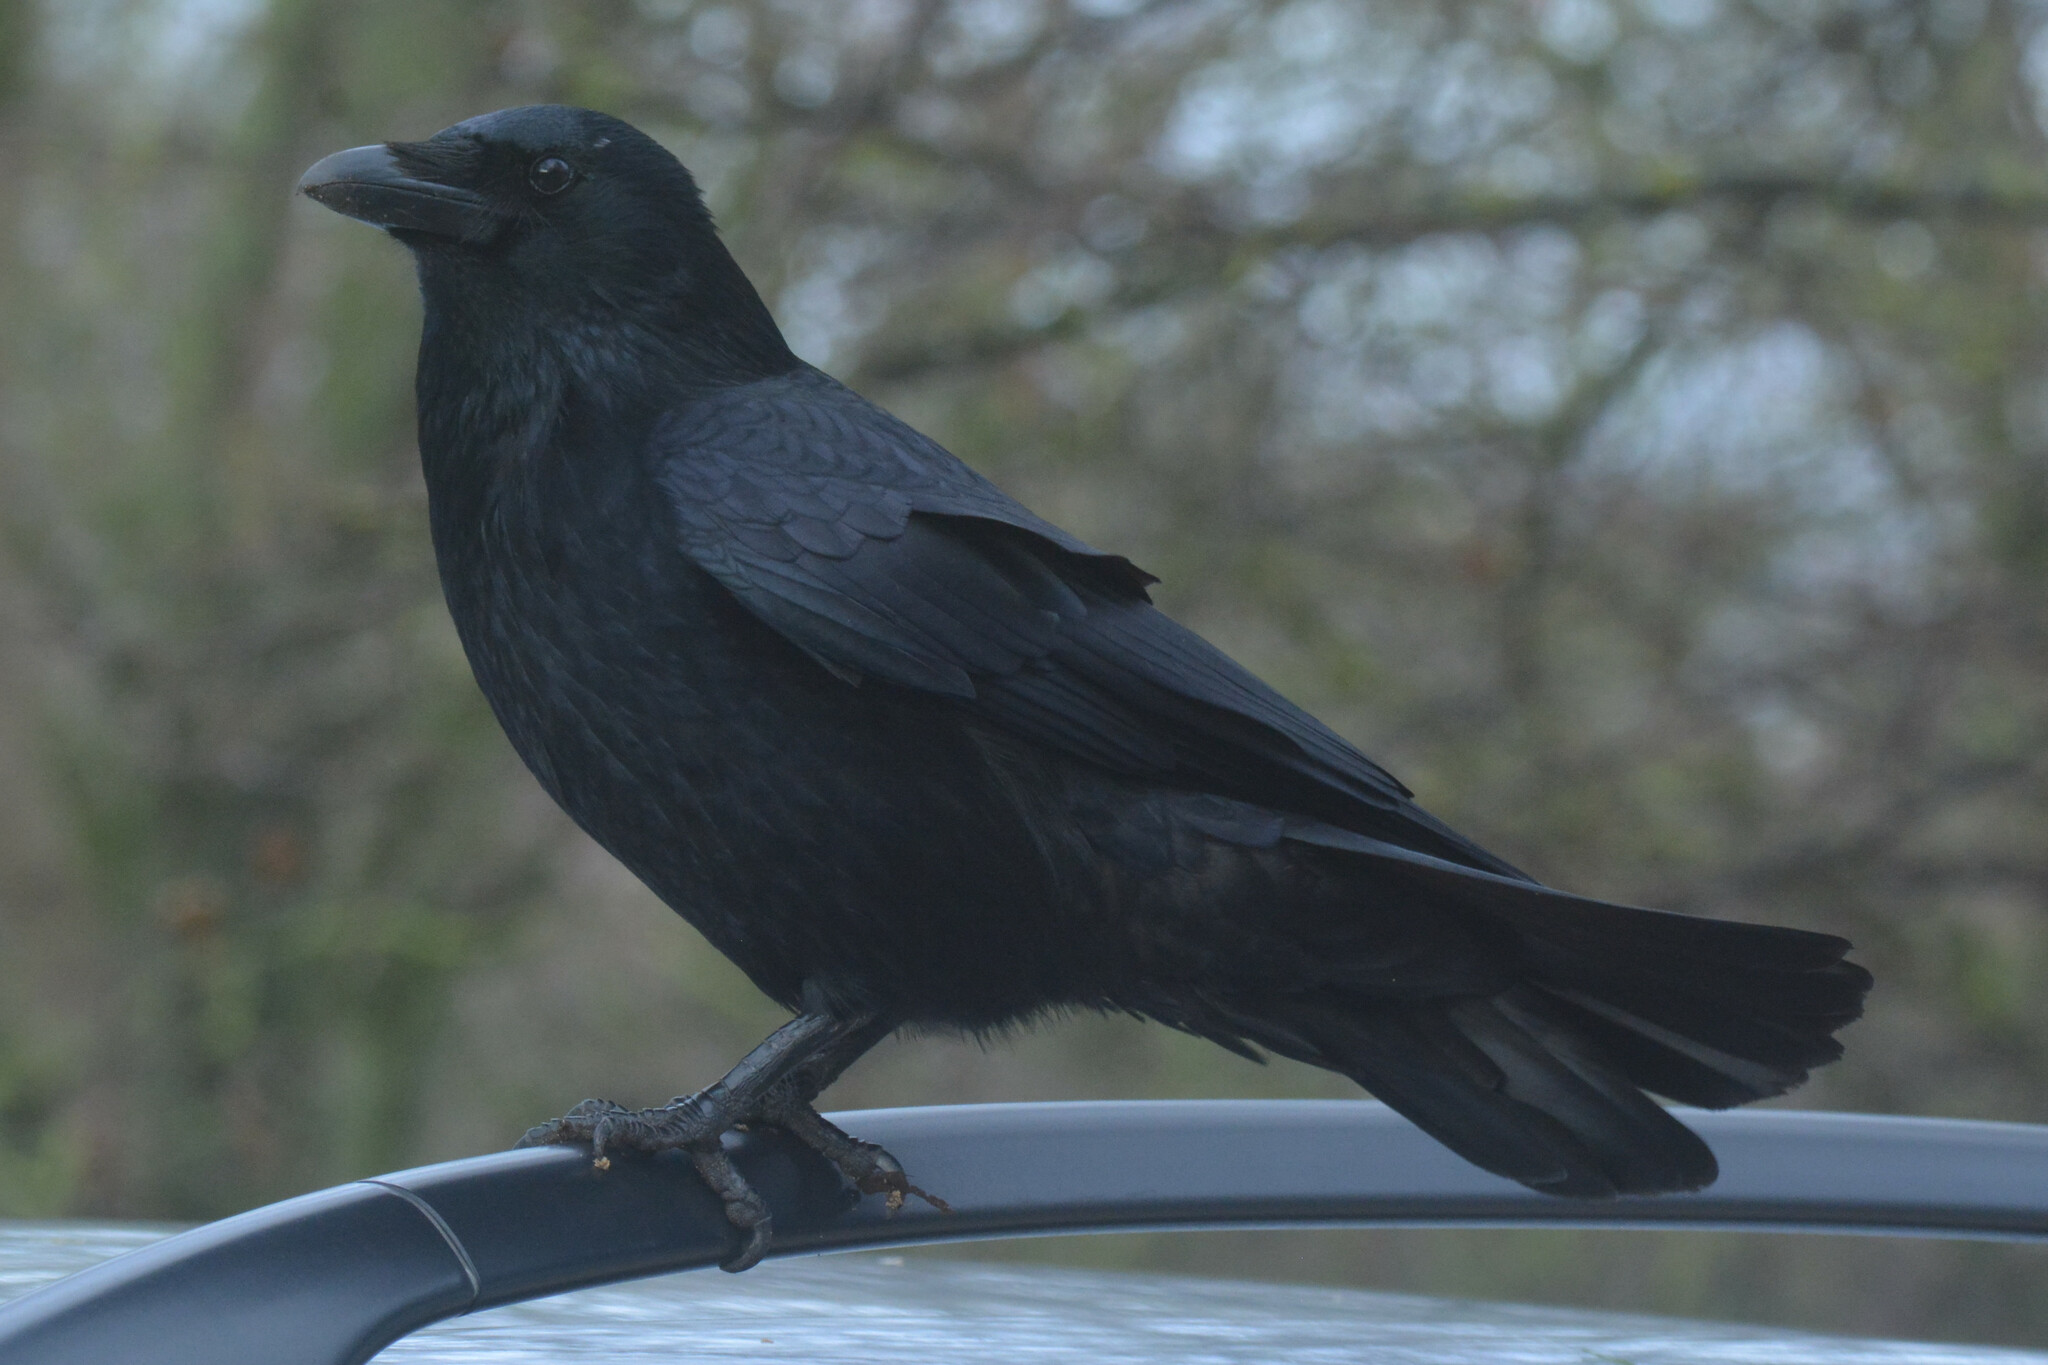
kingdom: Animalia
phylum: Chordata
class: Aves
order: Passeriformes
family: Corvidae
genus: Corvus
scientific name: Corvus corone
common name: Carrion crow
